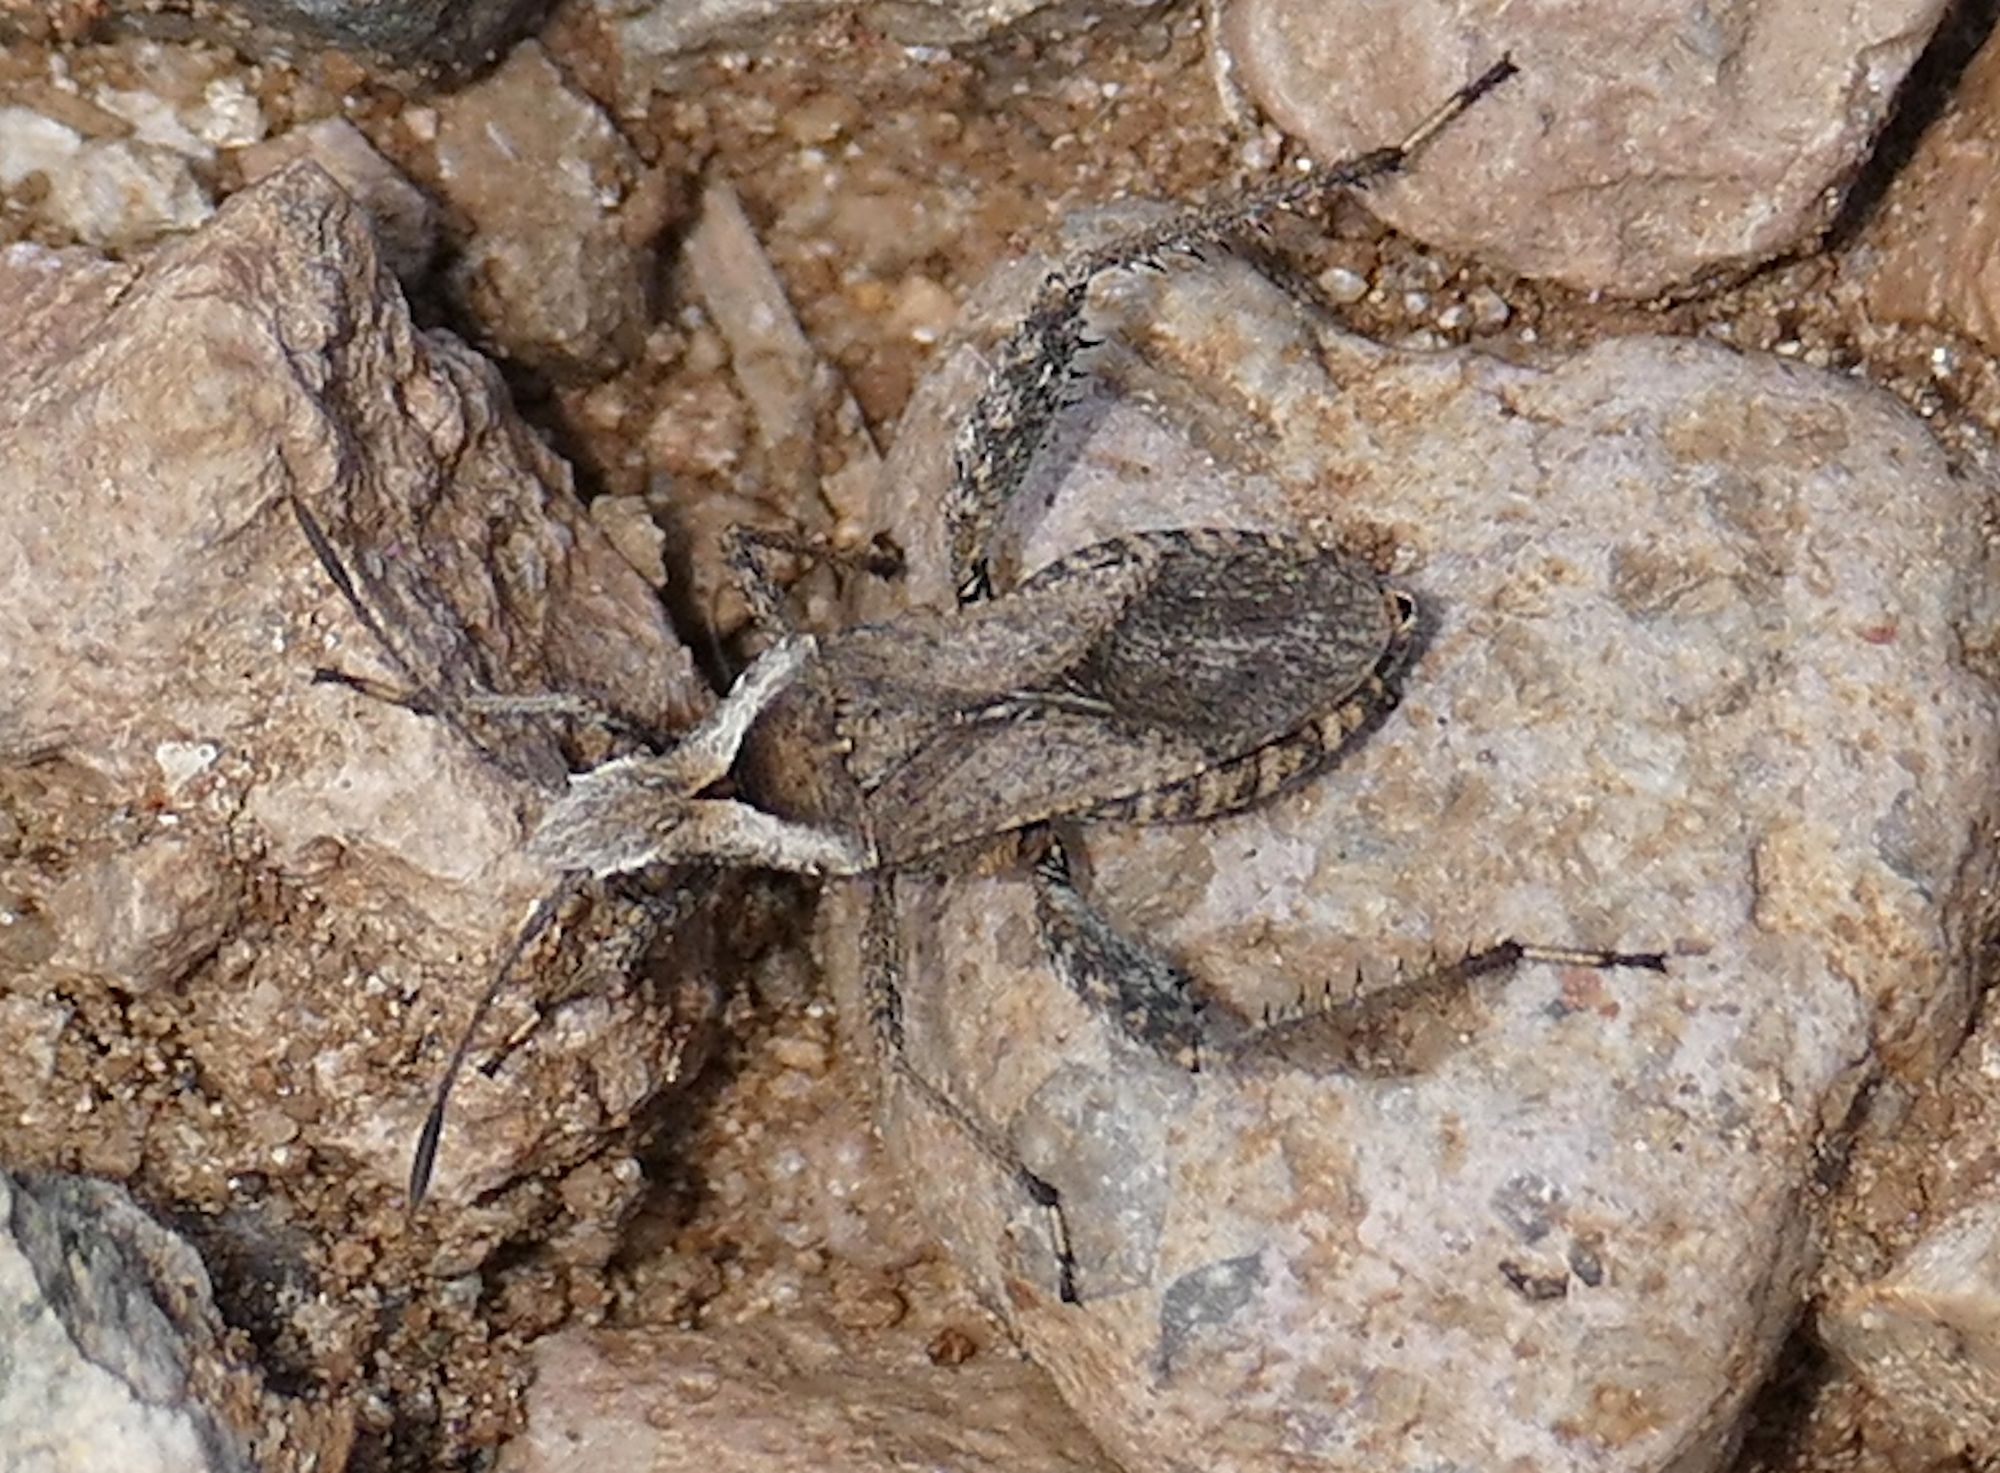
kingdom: Animalia
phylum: Arthropoda
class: Insecta
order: Hemiptera
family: Alydidae
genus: Stachyocnemus
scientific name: Stachyocnemus apicalis
